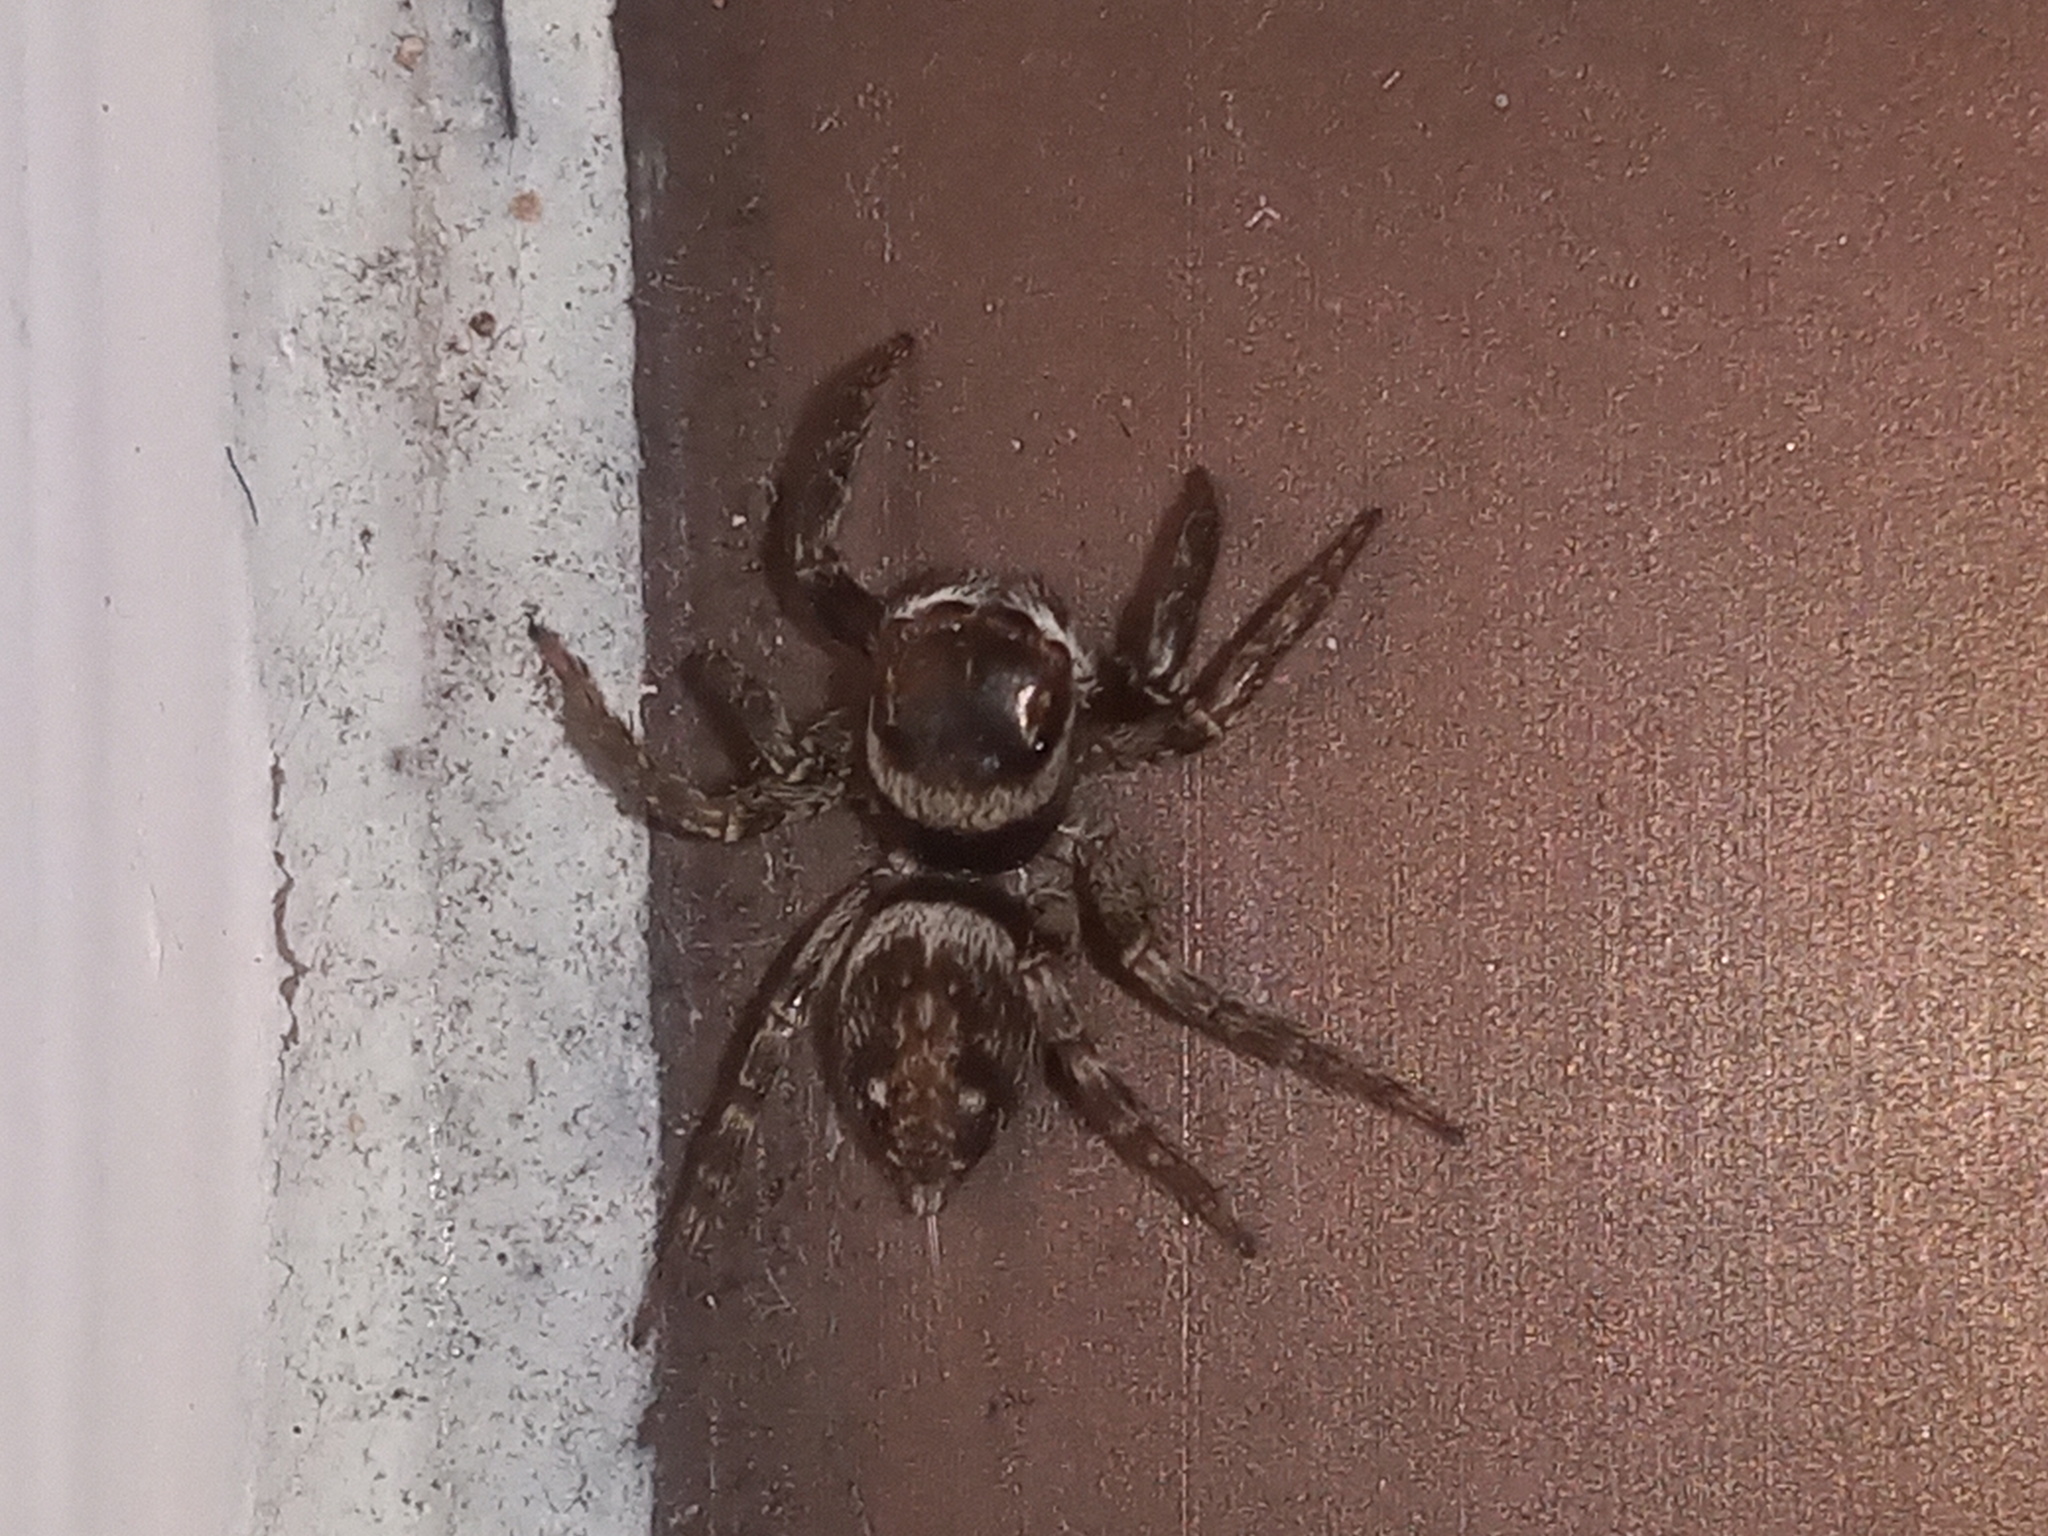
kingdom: Animalia
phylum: Arthropoda
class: Arachnida
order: Araneae
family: Salticidae
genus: Hasarius
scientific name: Hasarius adansoni
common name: Jumping spider
